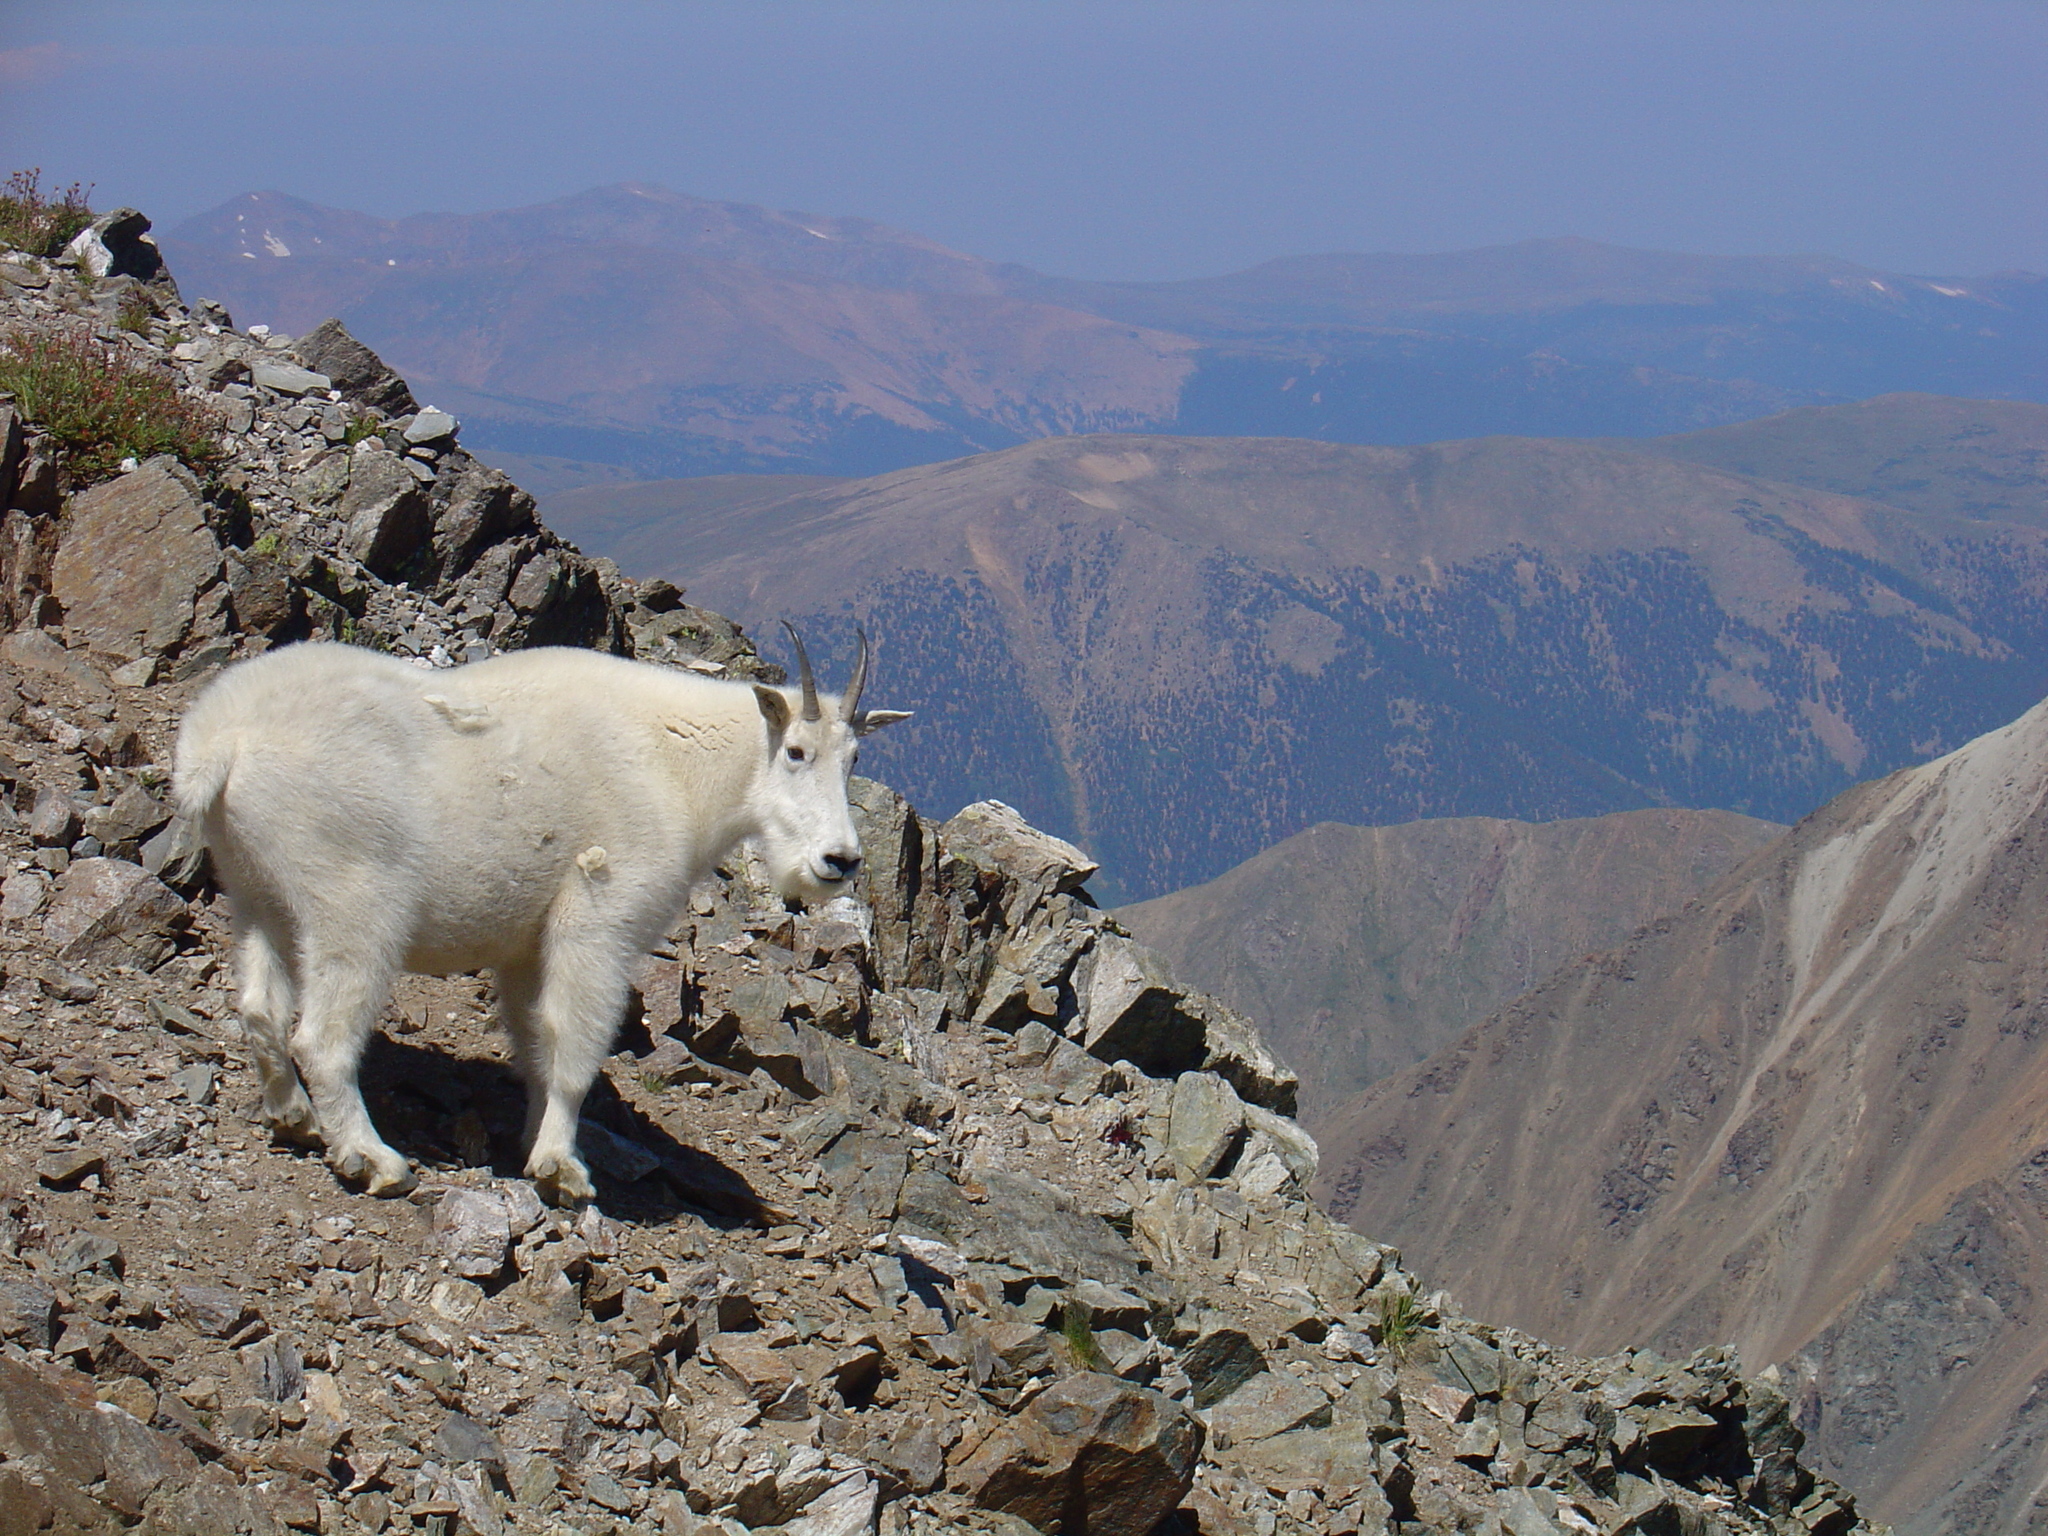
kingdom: Animalia
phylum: Chordata
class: Mammalia
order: Artiodactyla
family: Bovidae
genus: Oreamnos
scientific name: Oreamnos americanus
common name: Mountain goat
